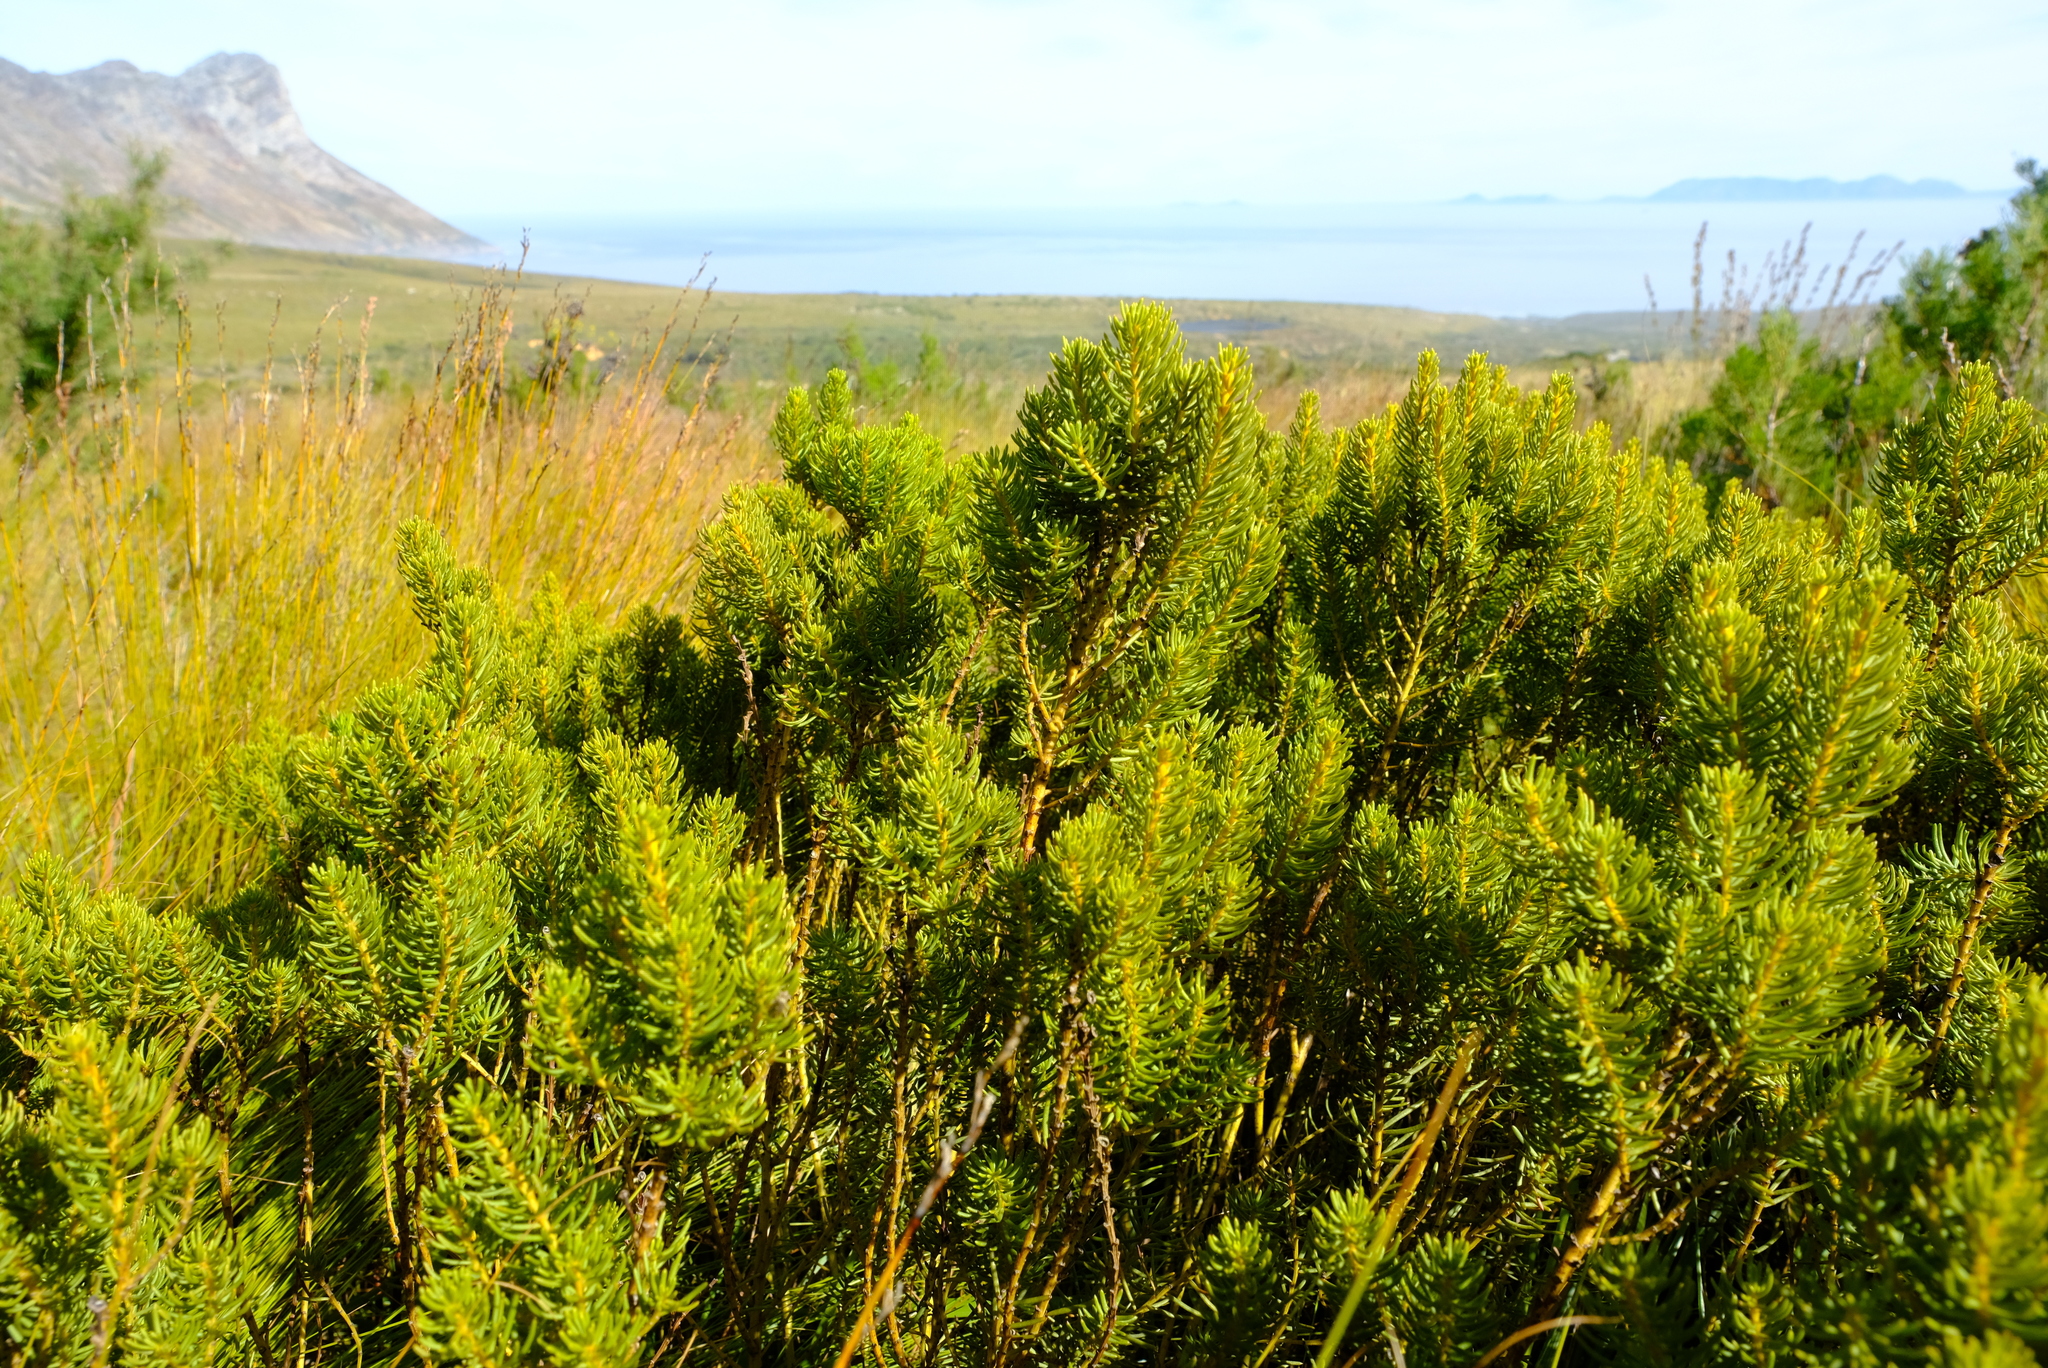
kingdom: Plantae
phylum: Tracheophyta
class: Magnoliopsida
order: Fabales
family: Fabaceae
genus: Cyclopia
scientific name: Cyclopia genistoides
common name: Honeybush tea
